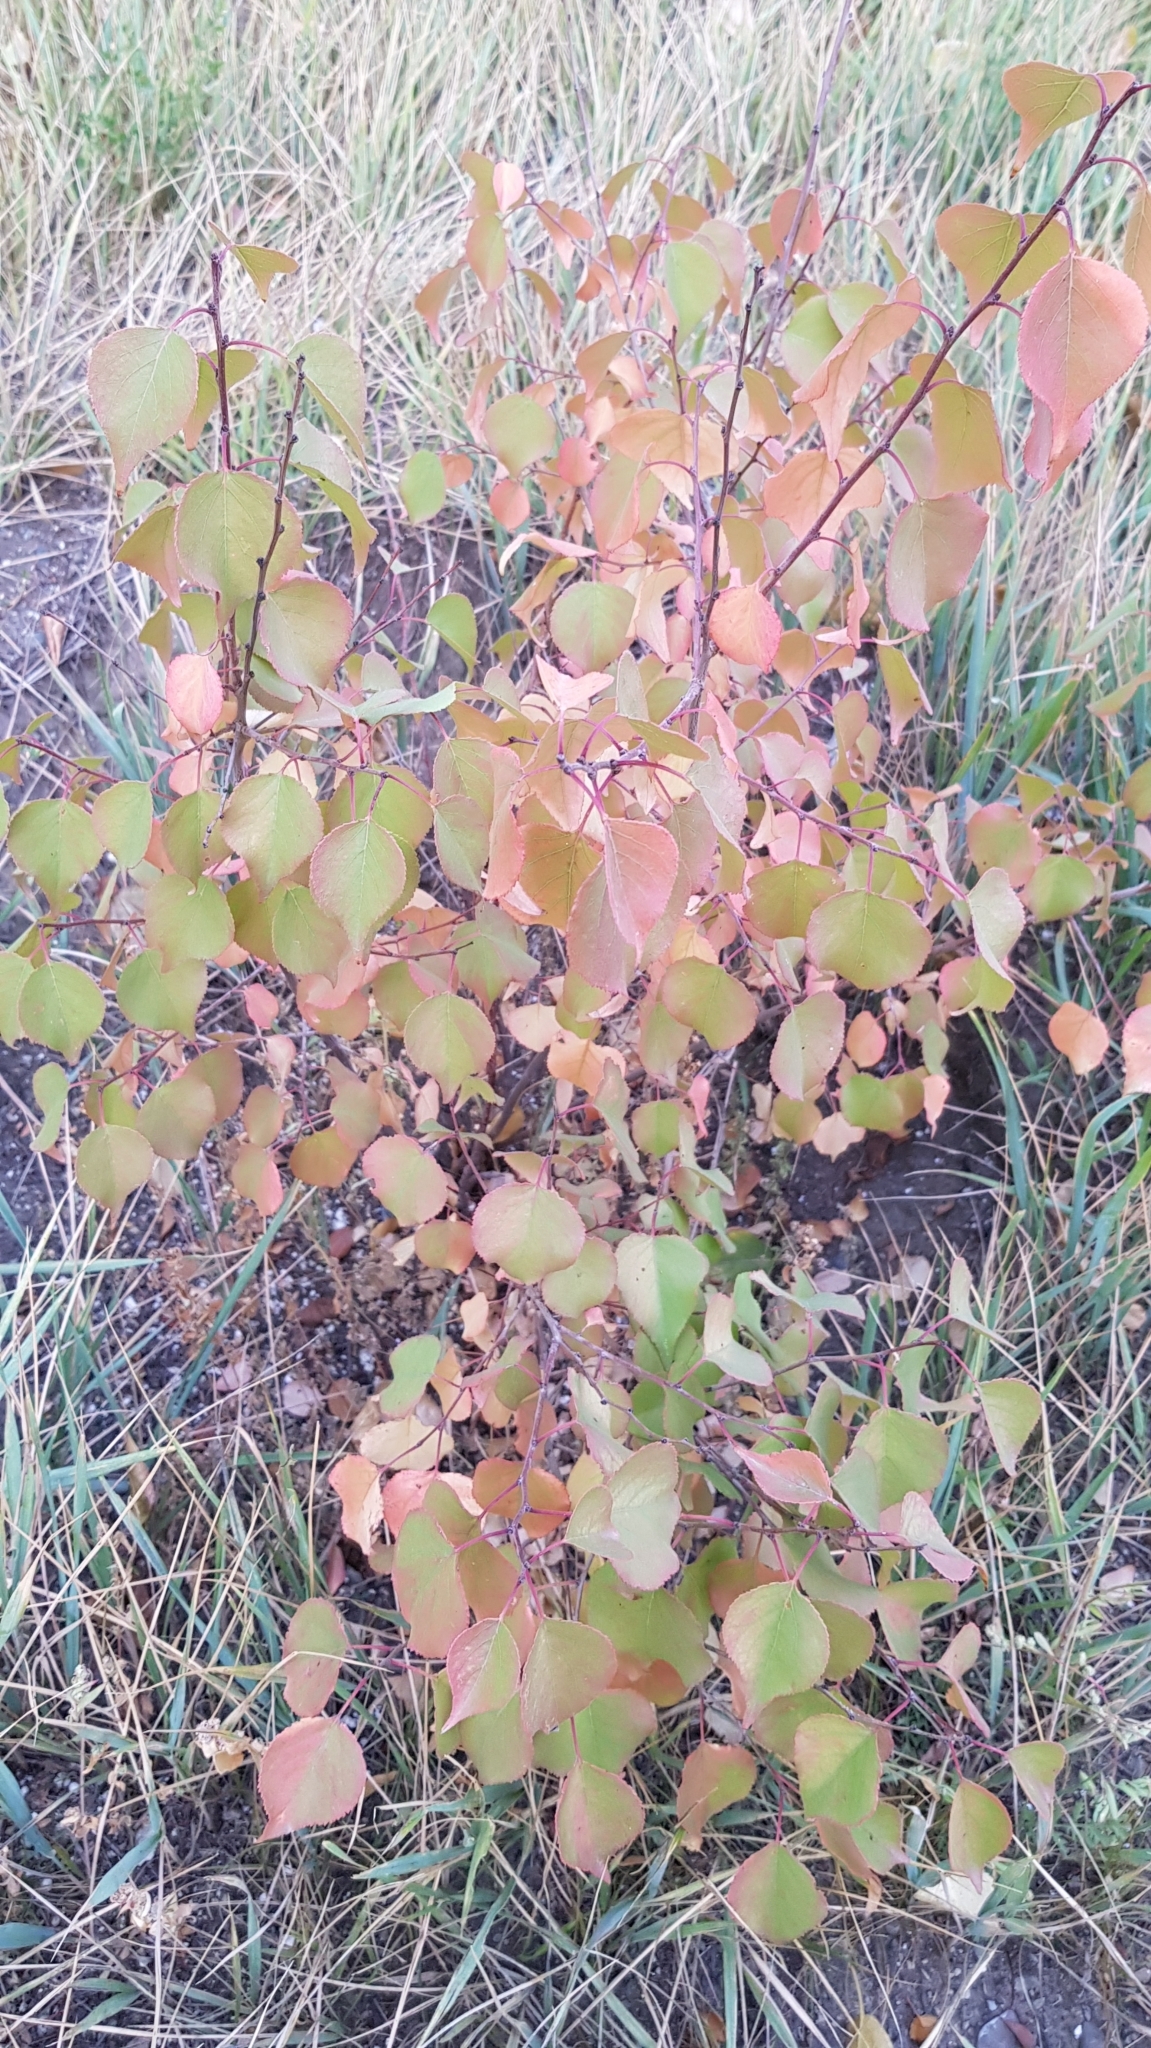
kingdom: Plantae
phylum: Tracheophyta
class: Magnoliopsida
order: Rosales
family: Rosaceae
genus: Prunus
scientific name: Prunus armeniaca
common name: Apricot
